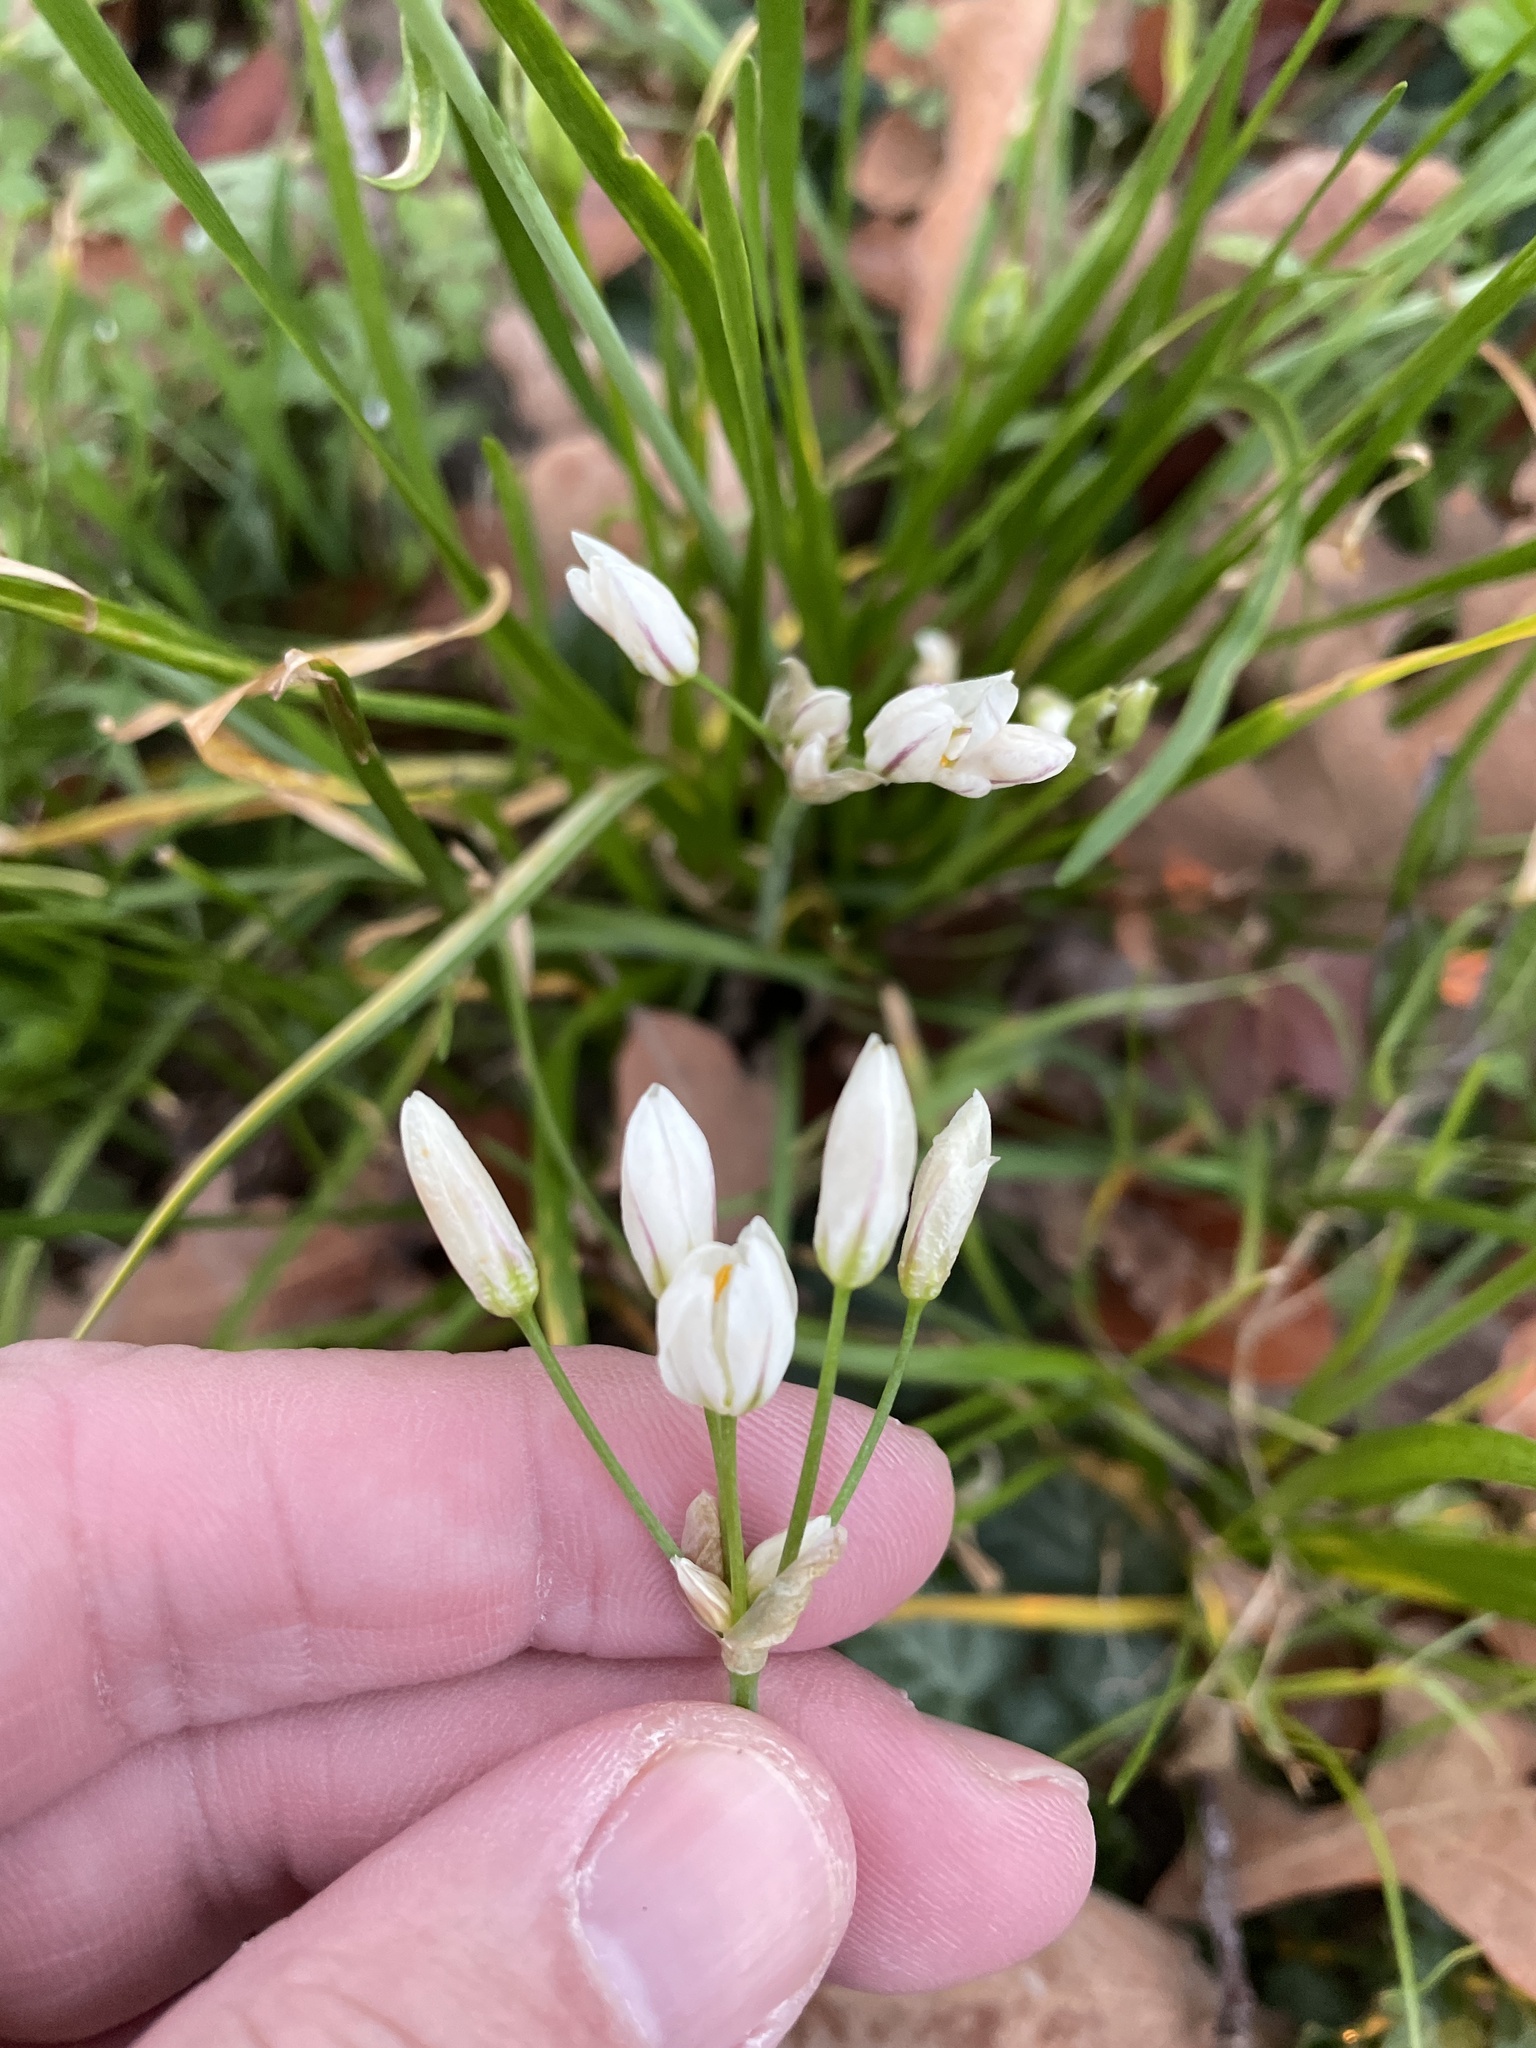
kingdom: Plantae
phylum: Tracheophyta
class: Liliopsida
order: Asparagales
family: Amaryllidaceae
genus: Nothoscordum
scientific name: Nothoscordum bivalve
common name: Crow-poison
